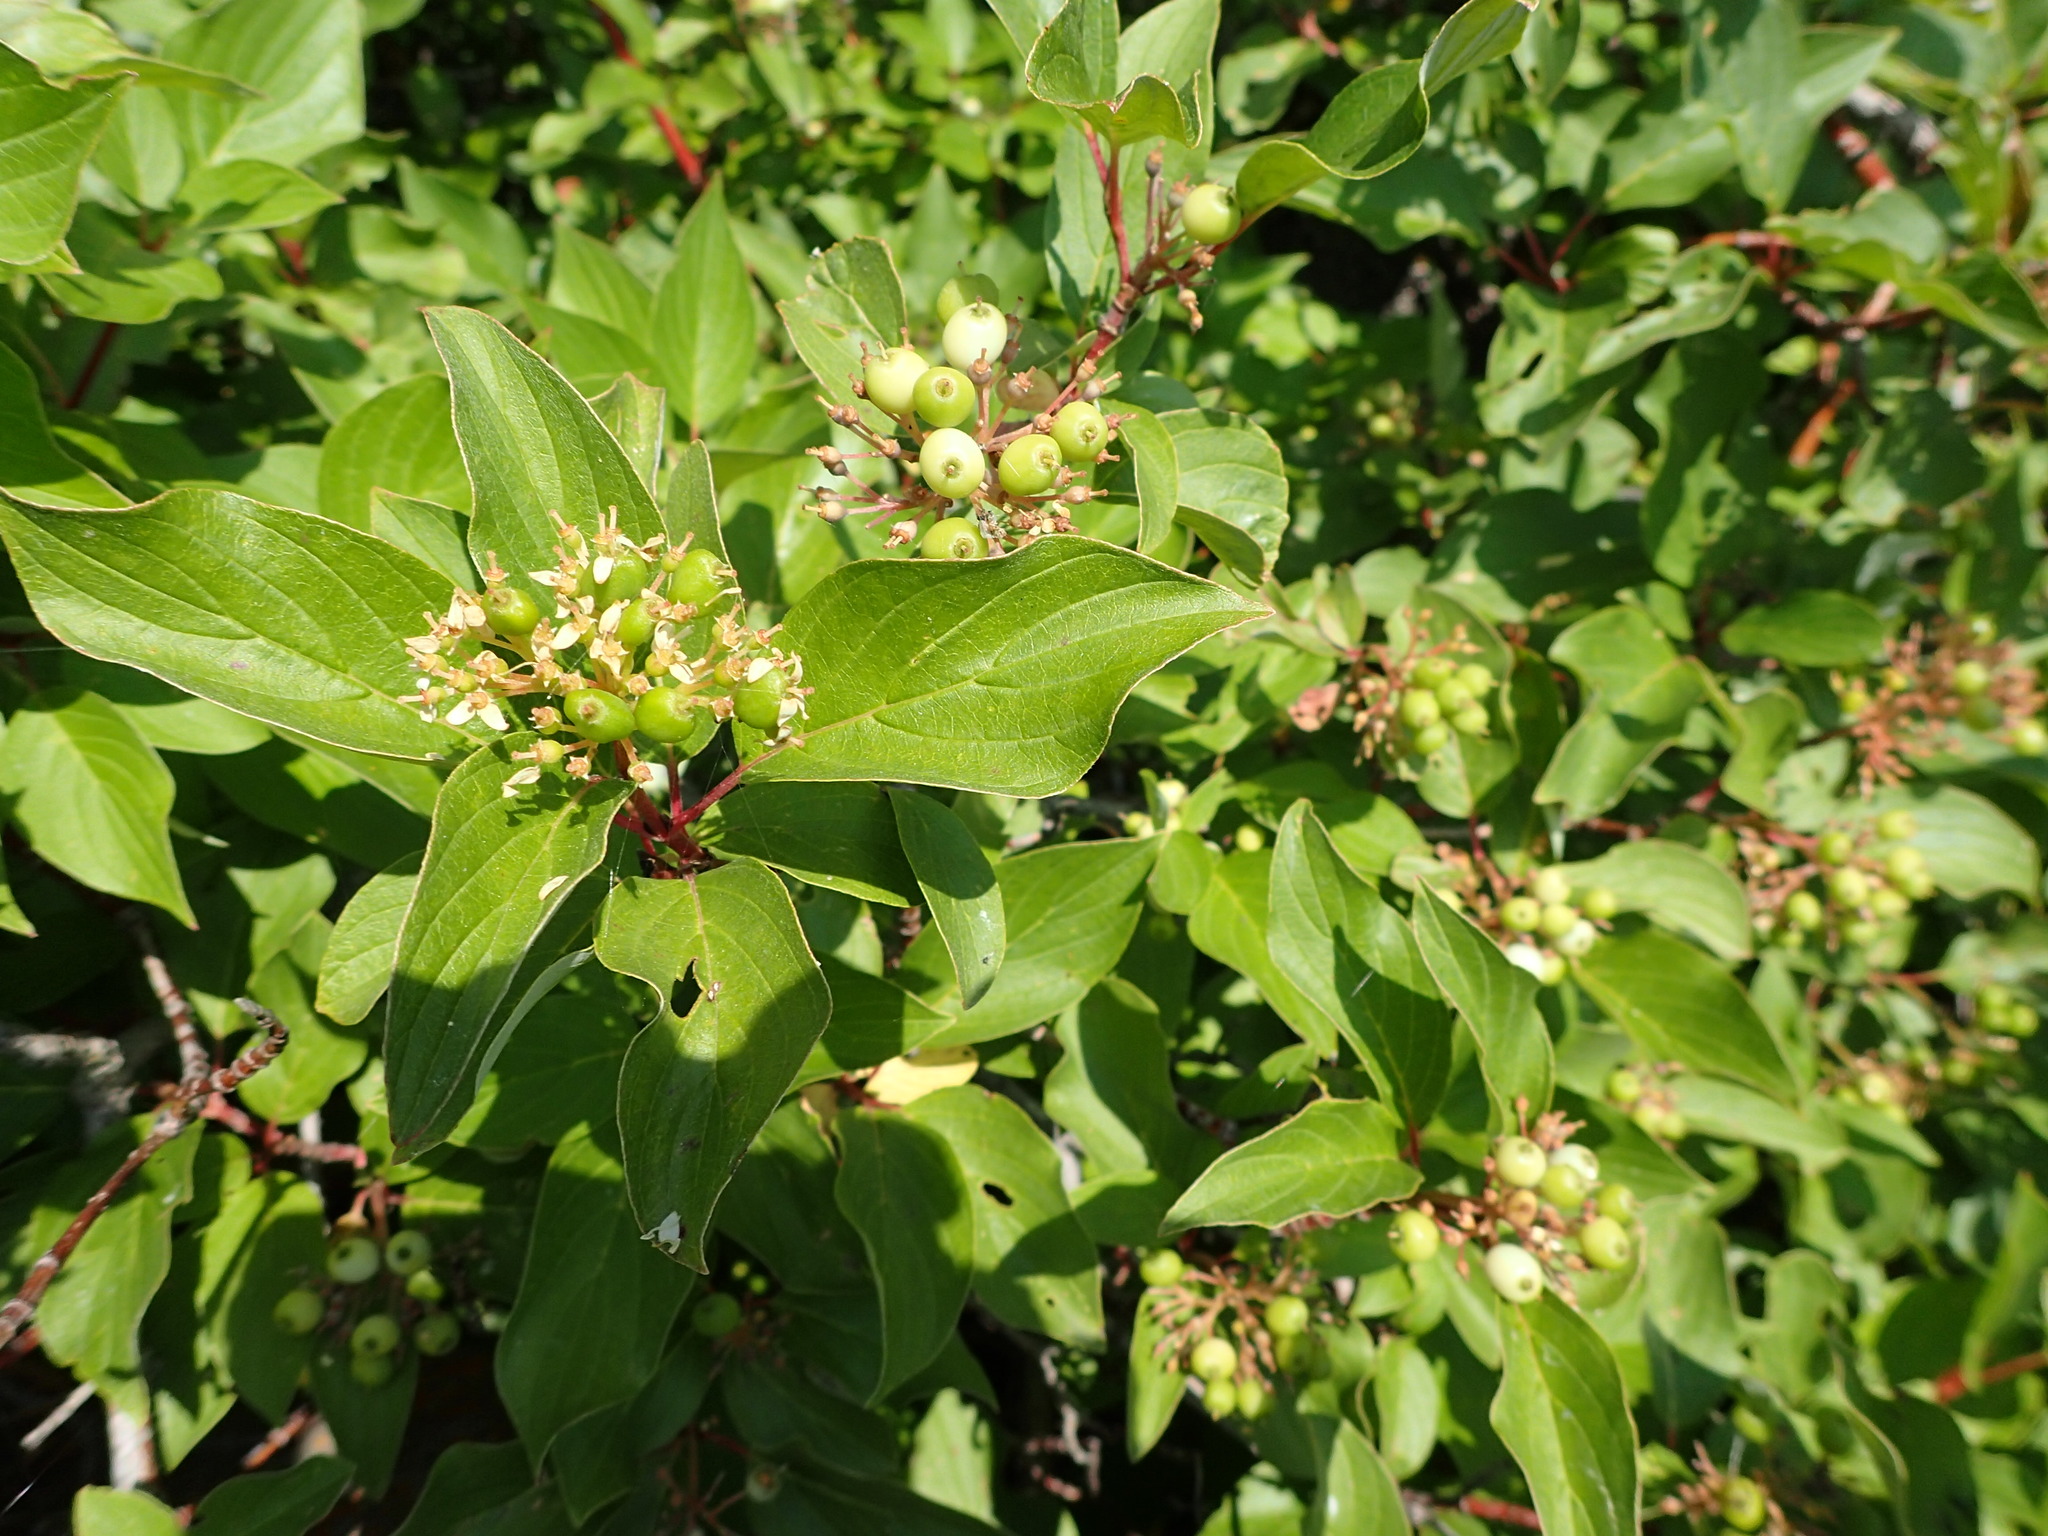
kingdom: Plantae
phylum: Tracheophyta
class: Magnoliopsida
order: Cornales
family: Cornaceae
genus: Cornus
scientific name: Cornus sericea
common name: Red-osier dogwood
